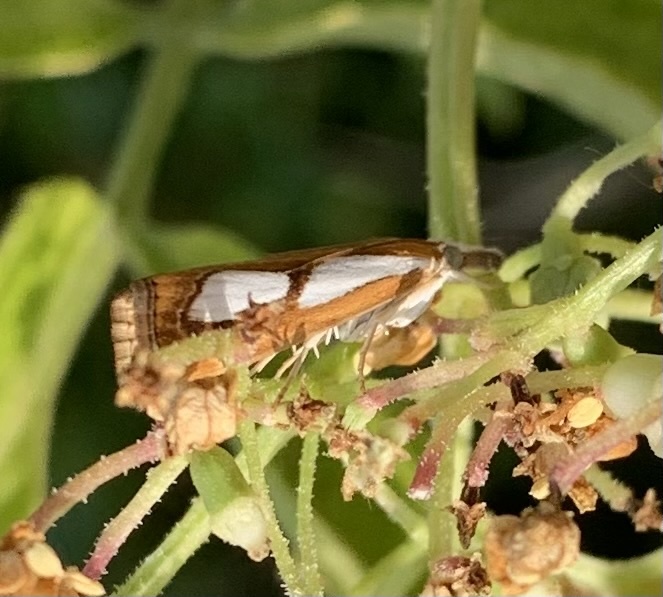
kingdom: Animalia
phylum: Arthropoda
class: Insecta
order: Lepidoptera
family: Crambidae
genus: Catoptria
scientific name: Catoptria pinella
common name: Pearl grass-veneer
